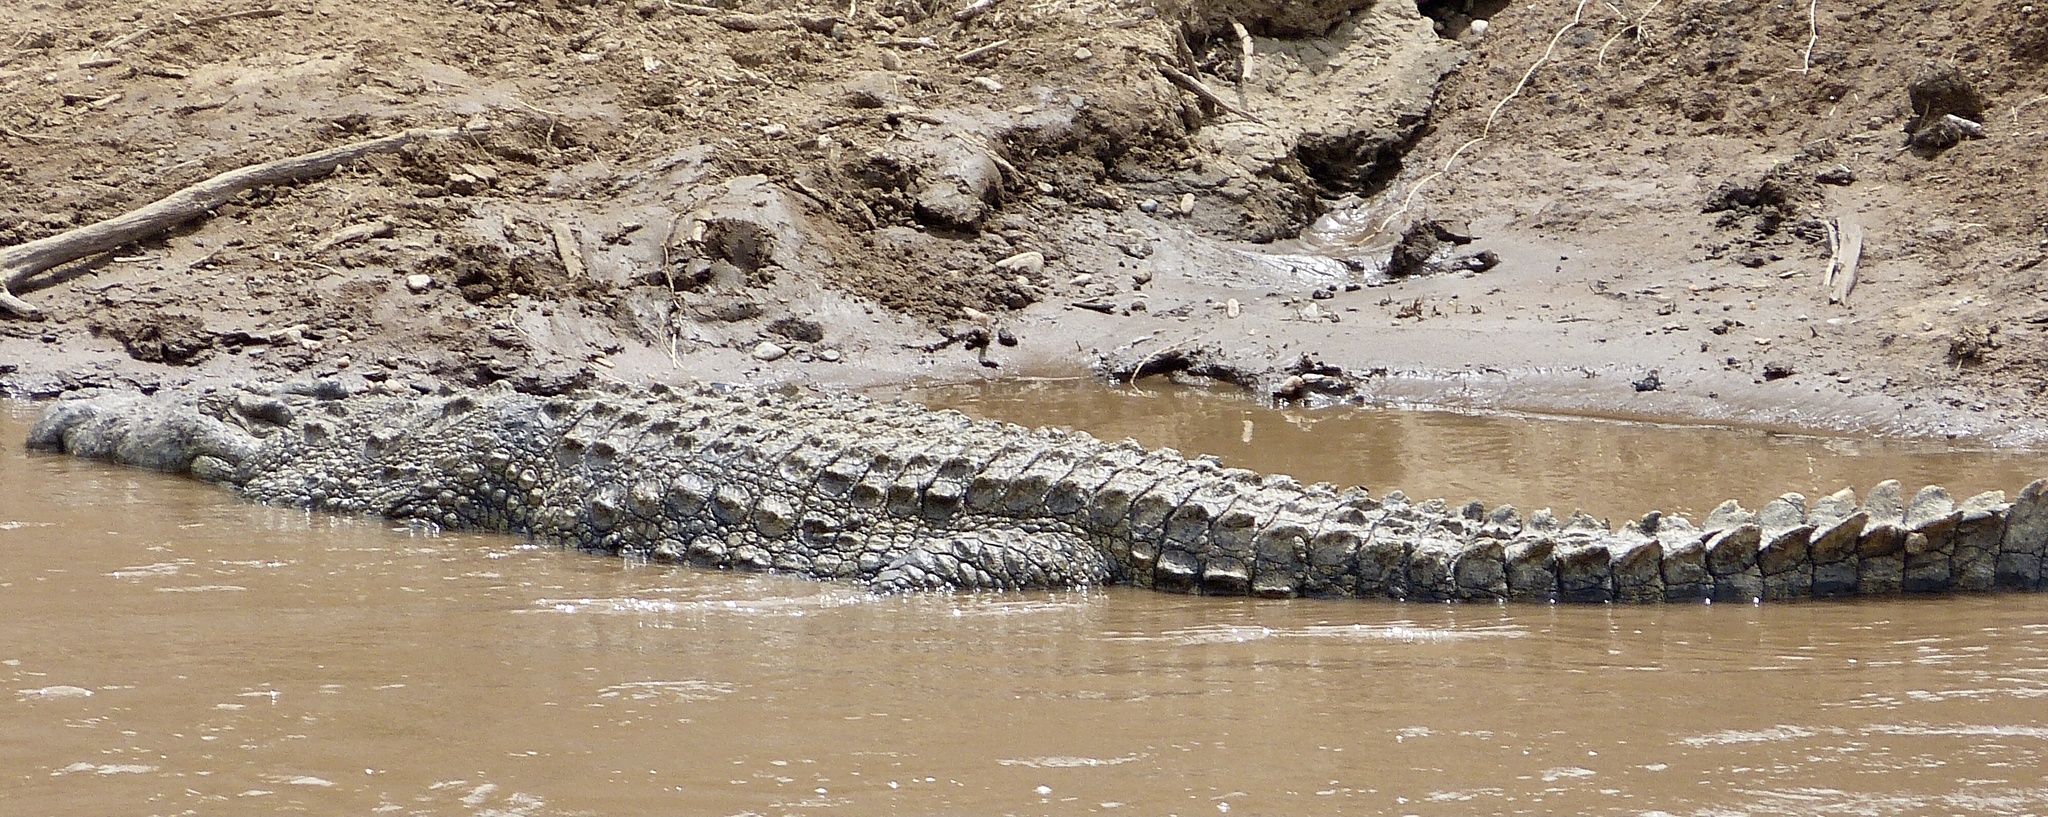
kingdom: Animalia
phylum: Chordata
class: Crocodylia
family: Crocodylidae
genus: Crocodylus
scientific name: Crocodylus niloticus
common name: Nile crocodile
